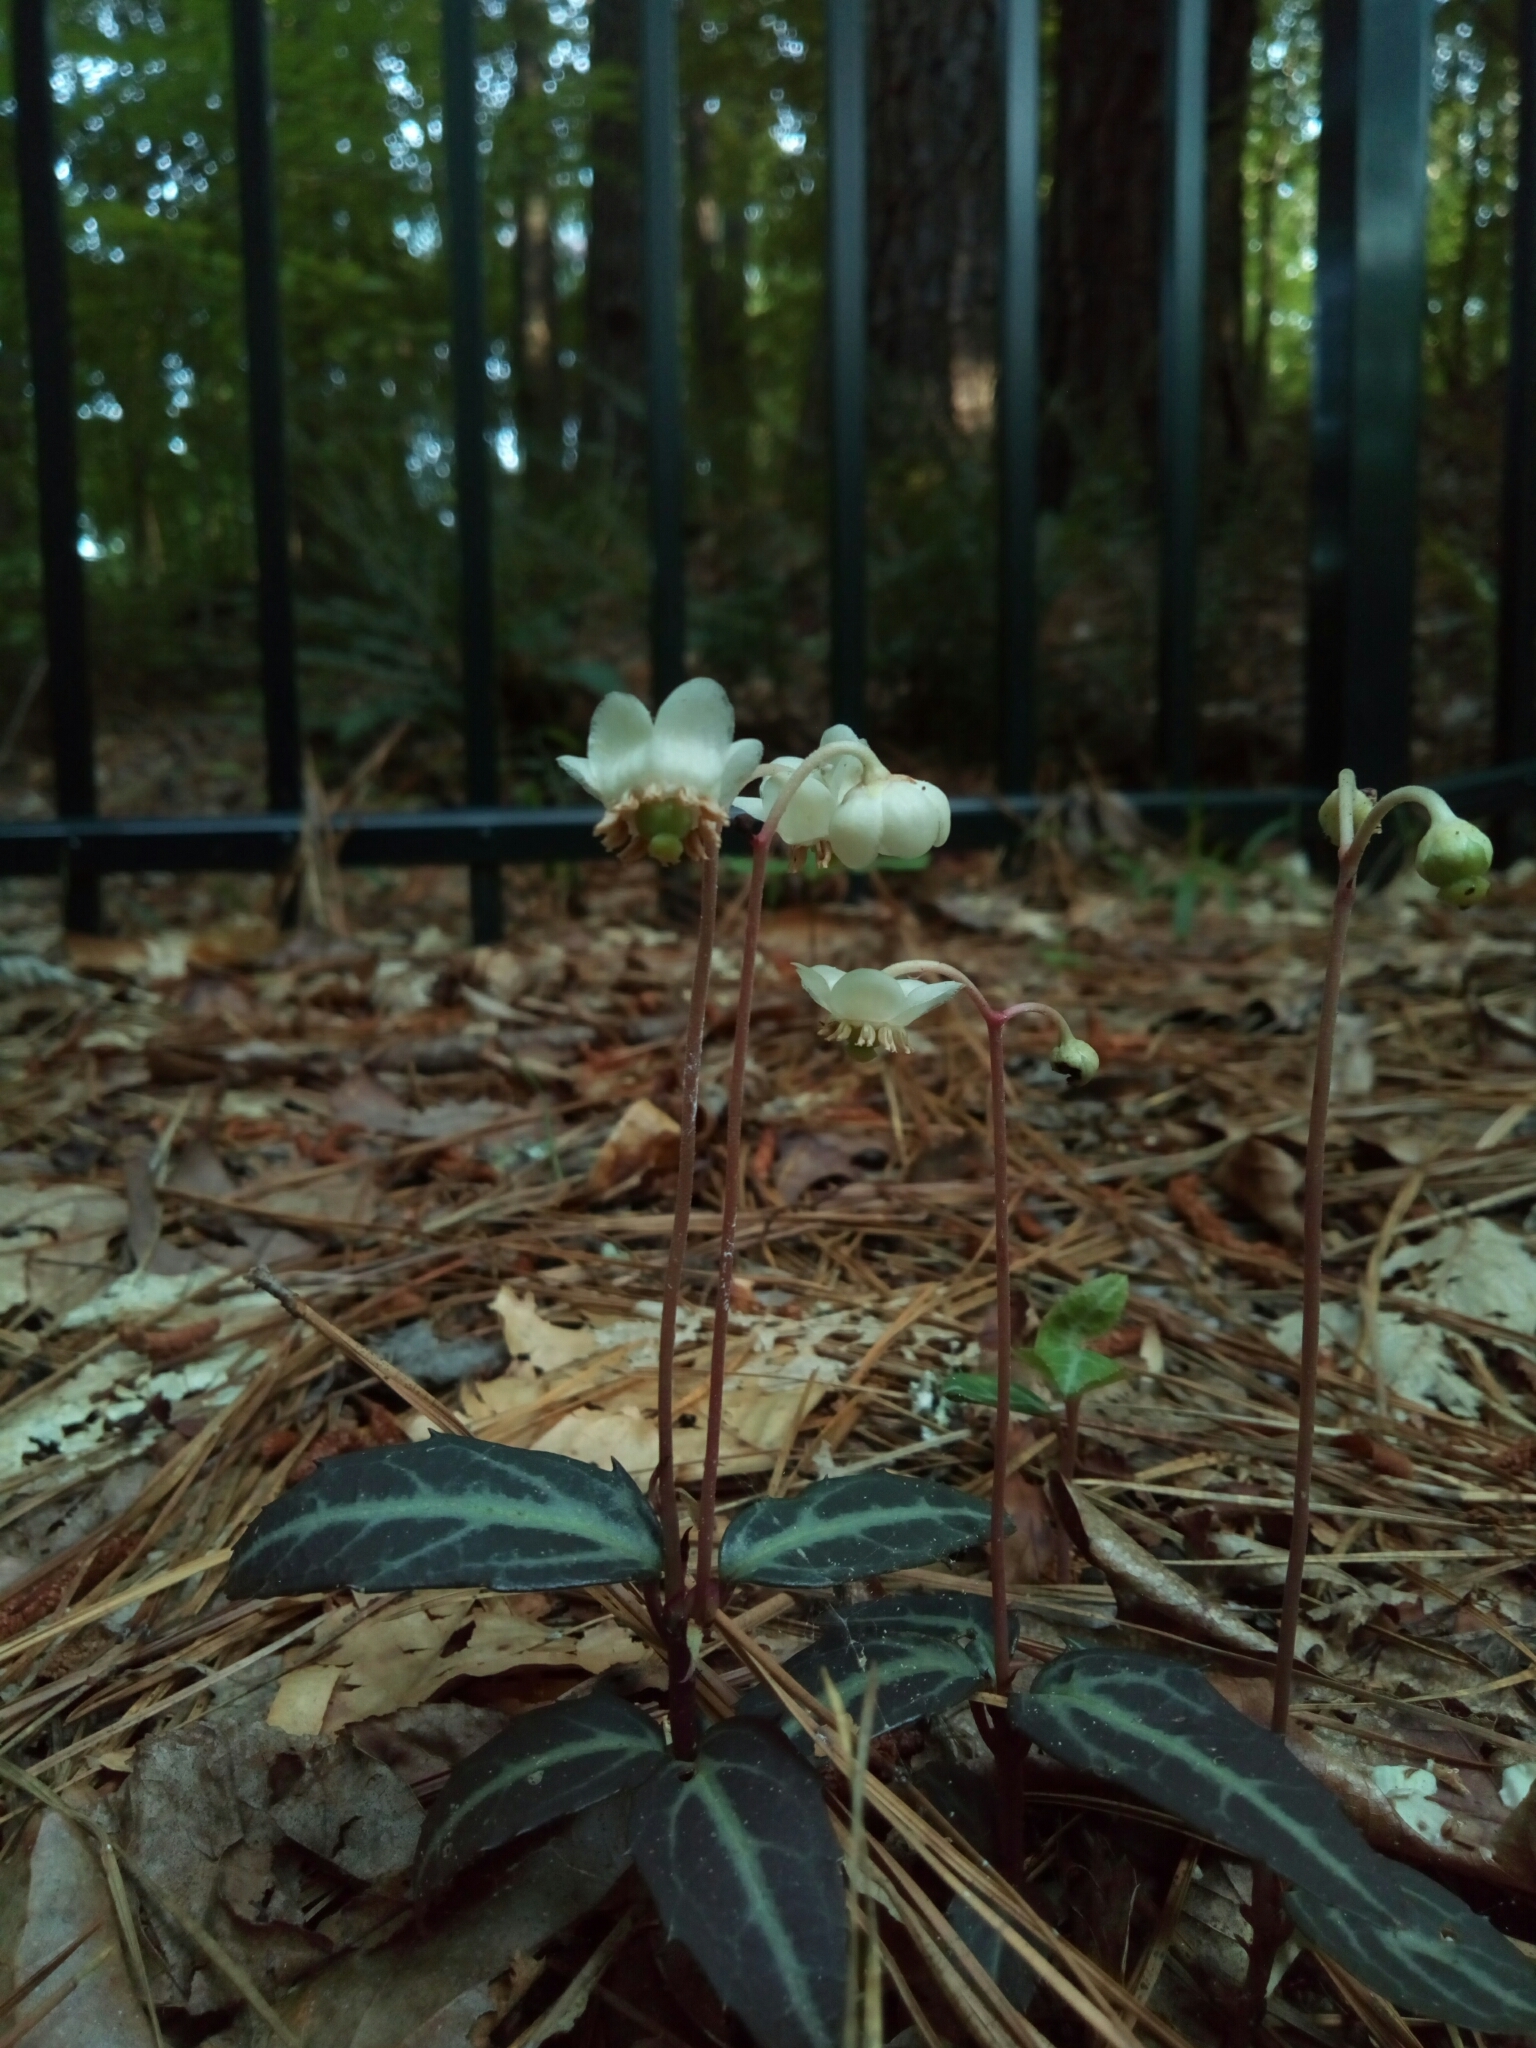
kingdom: Plantae
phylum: Tracheophyta
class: Magnoliopsida
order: Ericales
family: Ericaceae
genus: Chimaphila
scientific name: Chimaphila maculata
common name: Spotted pipsissewa
